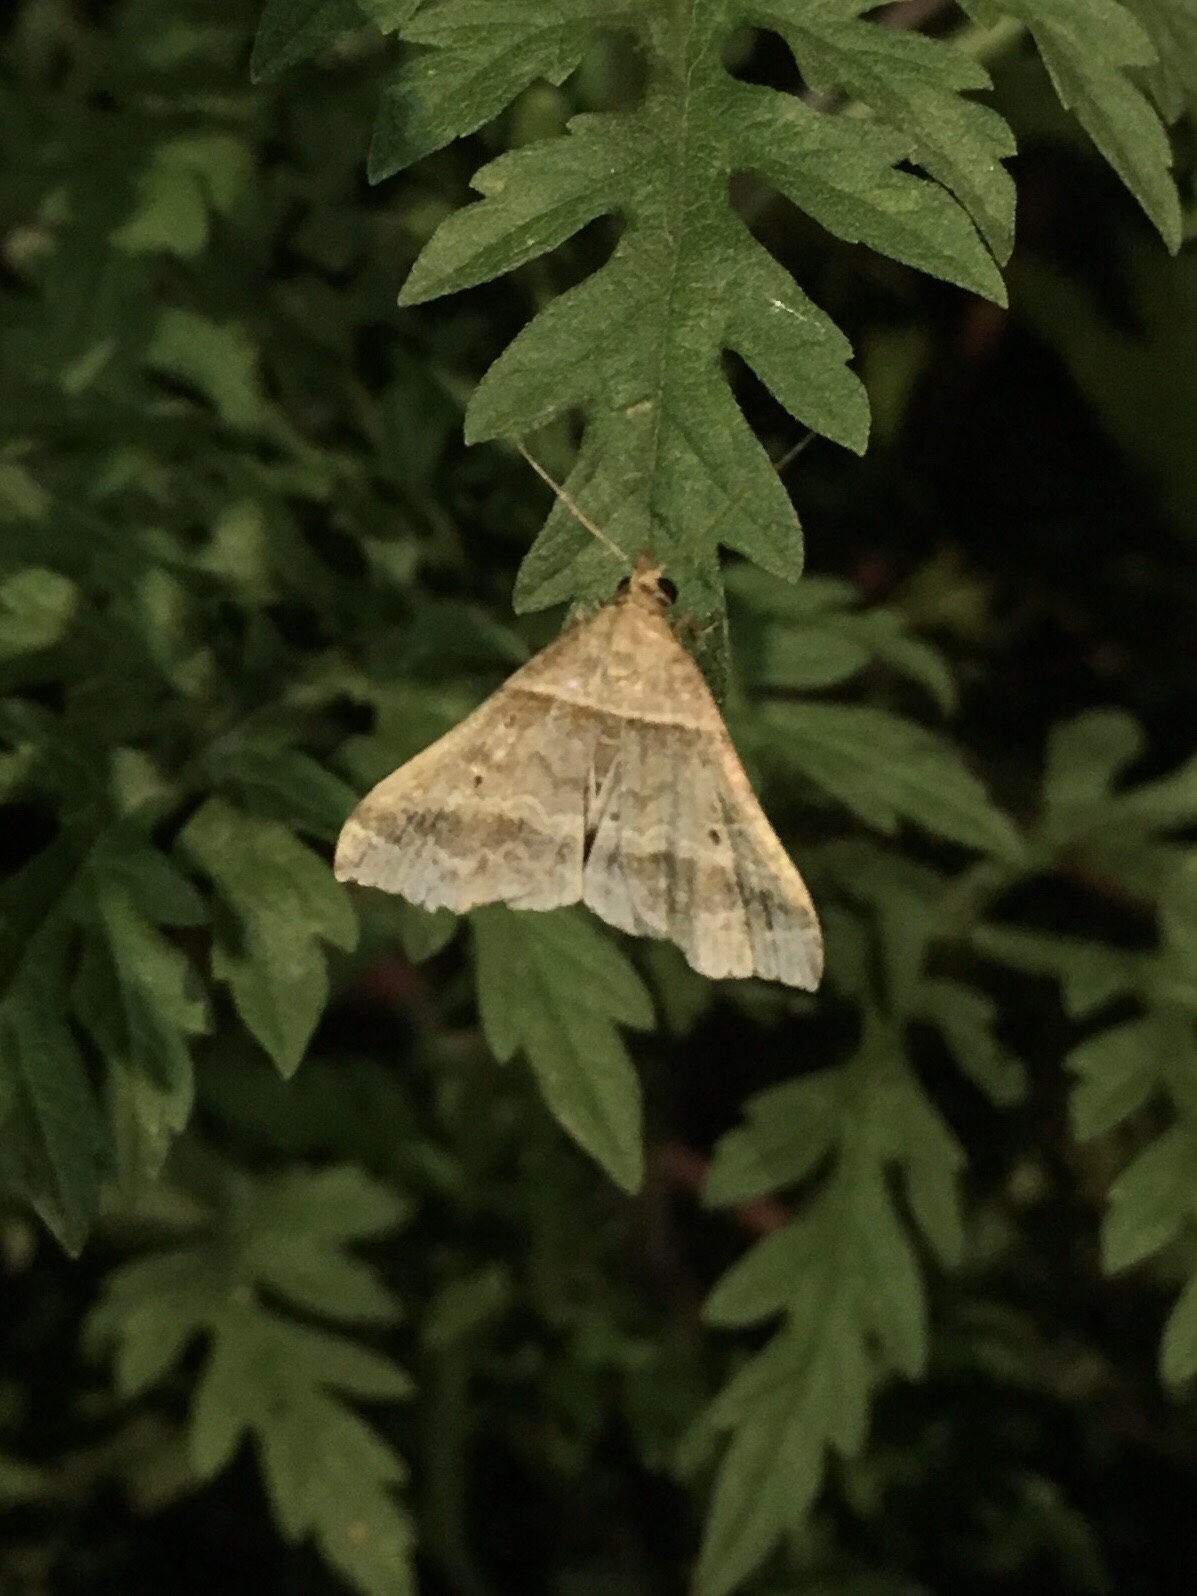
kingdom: Animalia
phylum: Arthropoda
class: Insecta
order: Lepidoptera
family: Erebidae
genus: Phaeolita
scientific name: Phaeolita pyramusalis
